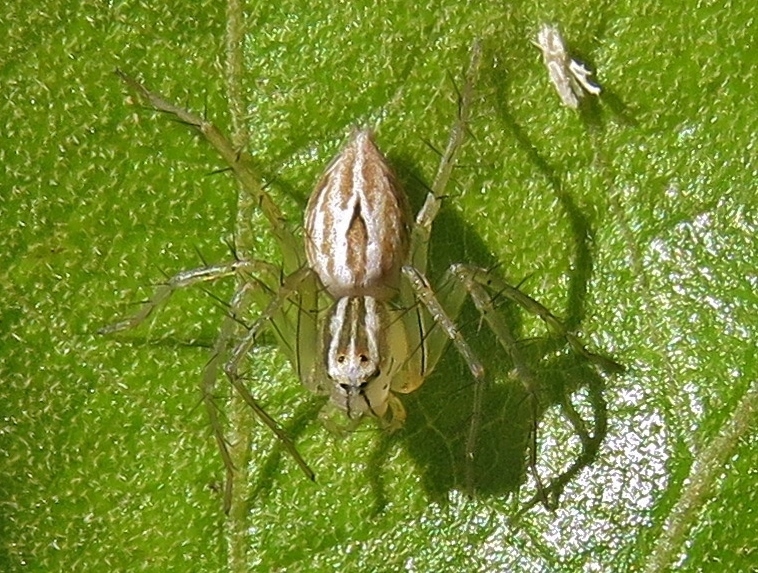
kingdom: Animalia
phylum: Arthropoda
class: Arachnida
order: Araneae
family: Oxyopidae
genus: Oxyopes
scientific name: Oxyopes salticus
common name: Lynx spiders
